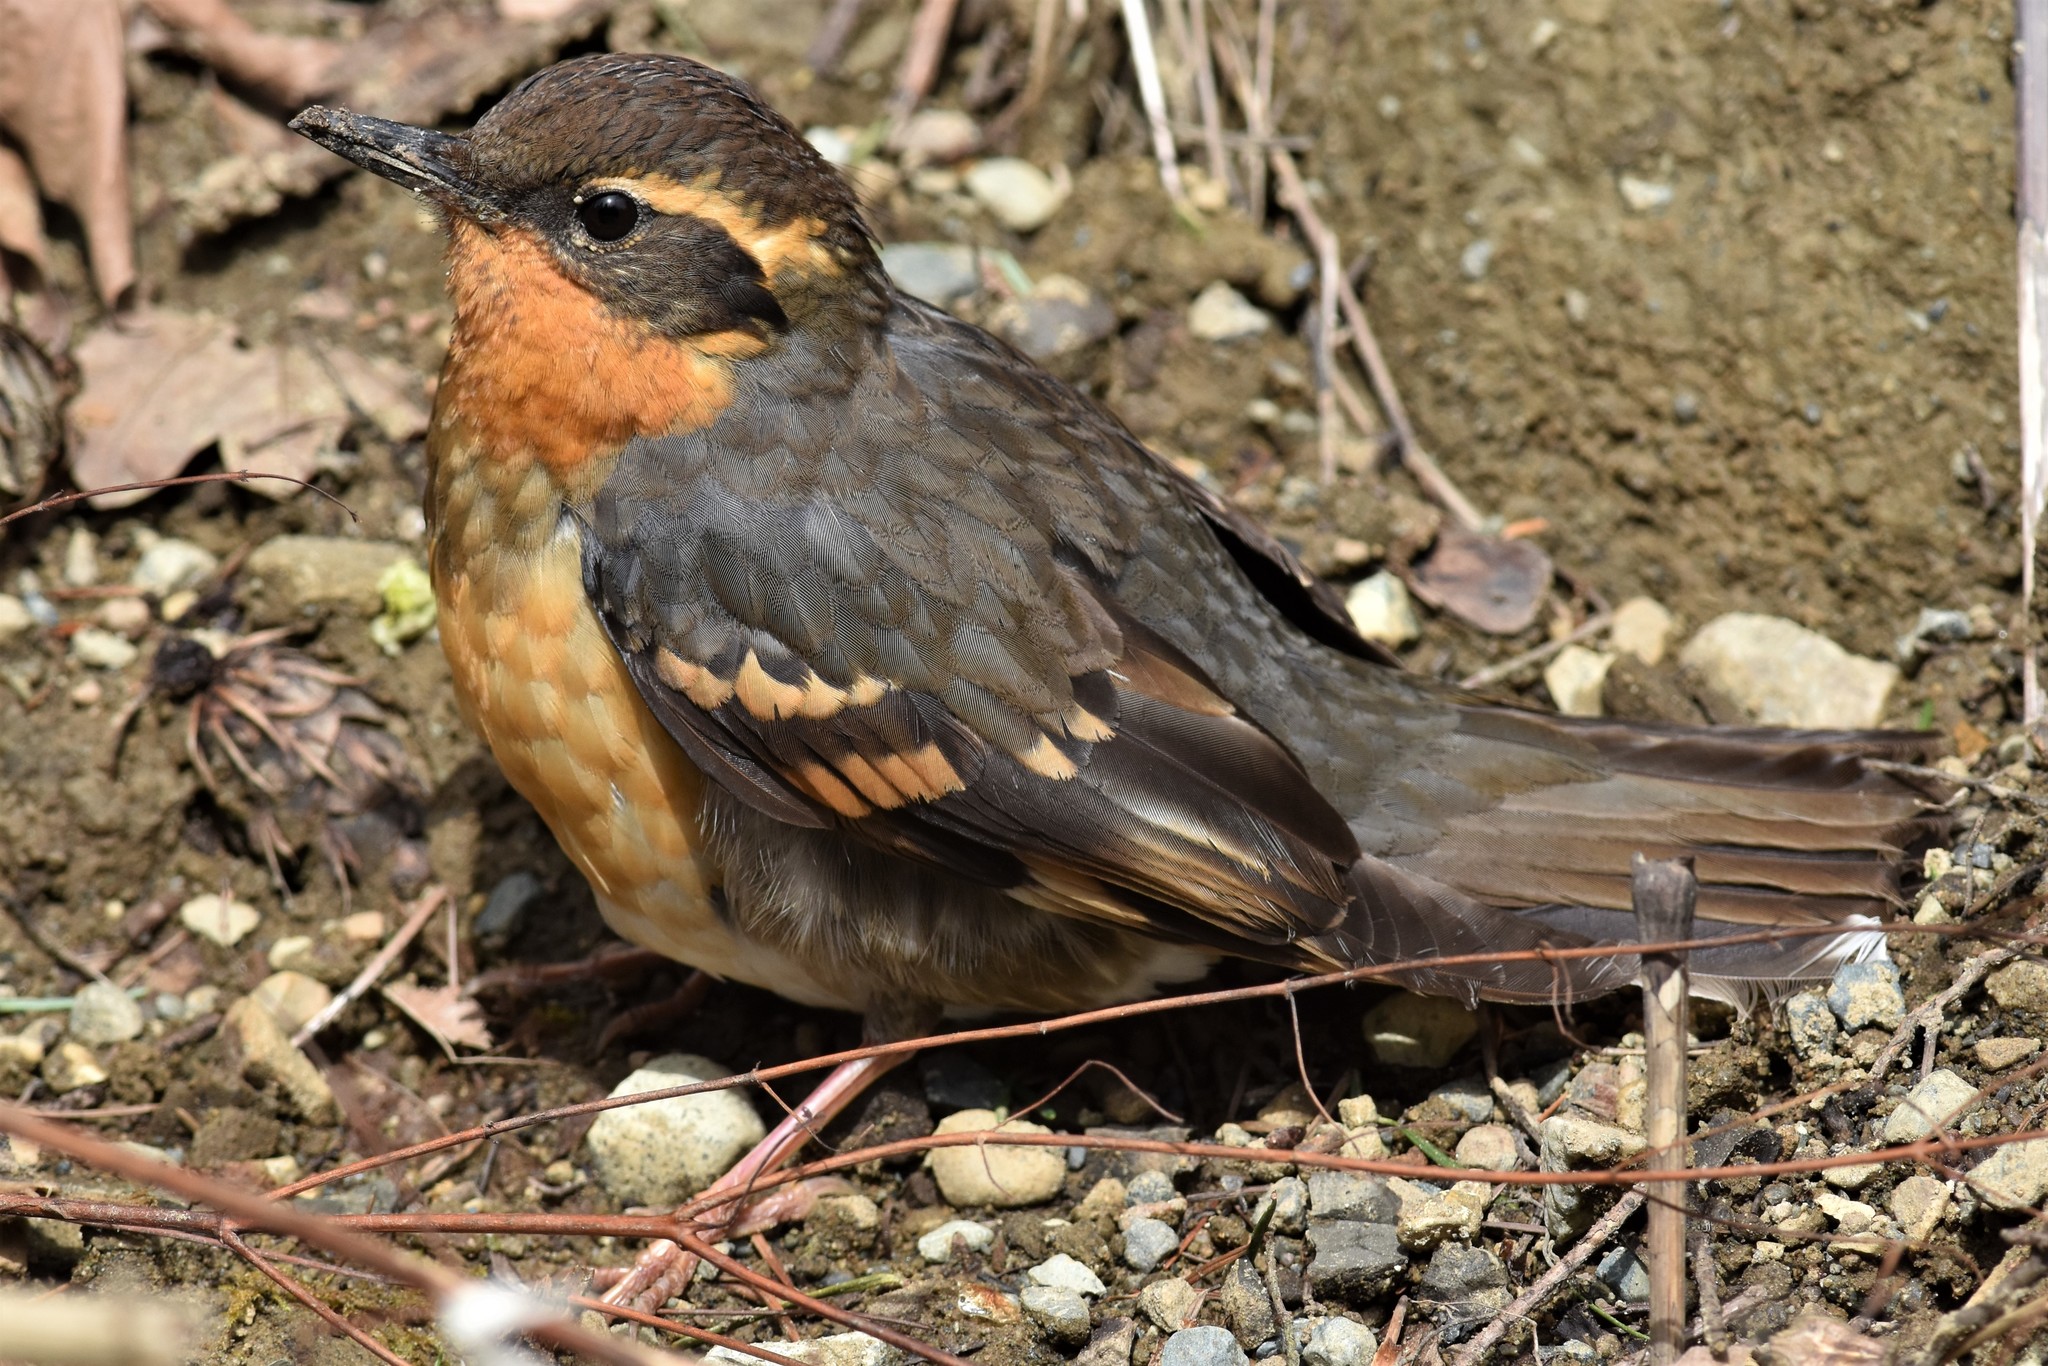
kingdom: Animalia
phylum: Chordata
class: Aves
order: Passeriformes
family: Turdidae
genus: Ixoreus
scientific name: Ixoreus naevius
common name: Varied thrush
